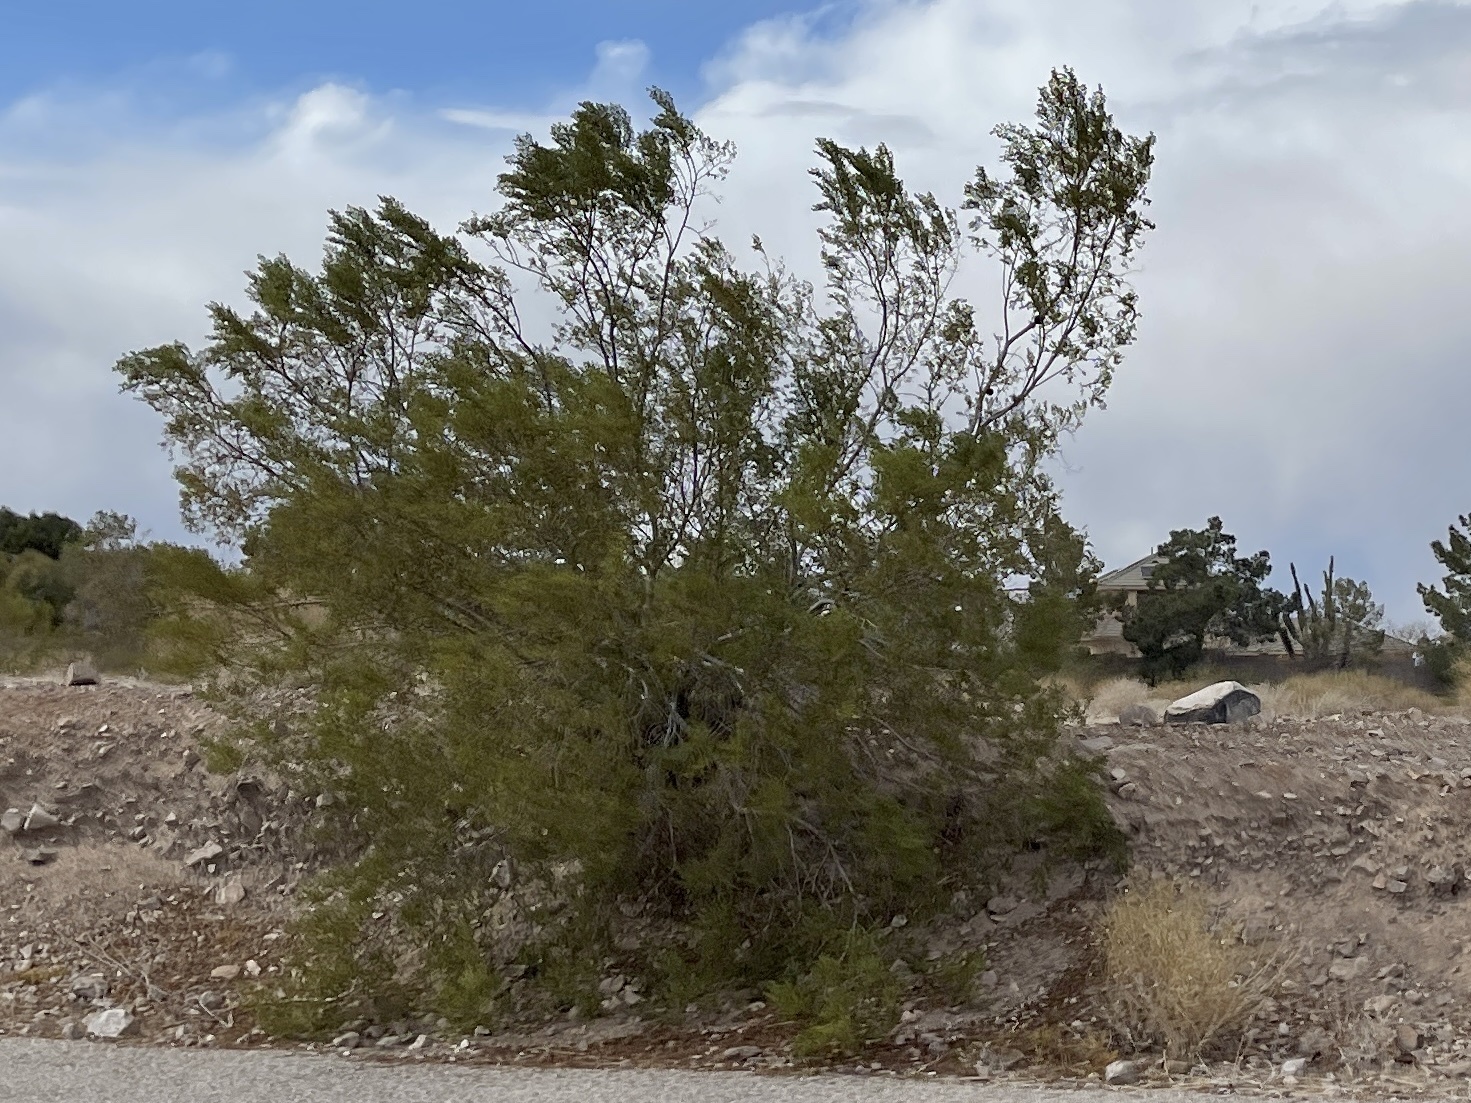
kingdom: Plantae
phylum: Tracheophyta
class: Magnoliopsida
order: Zygophyllales
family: Zygophyllaceae
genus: Larrea
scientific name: Larrea tridentata
